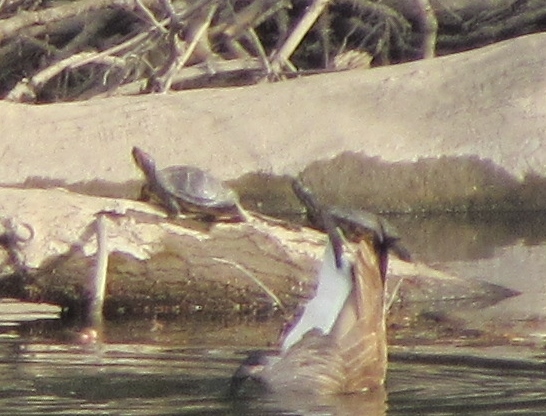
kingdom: Animalia
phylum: Chordata
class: Testudines
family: Emydidae
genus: Trachemys
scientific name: Trachemys scripta
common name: Slider
